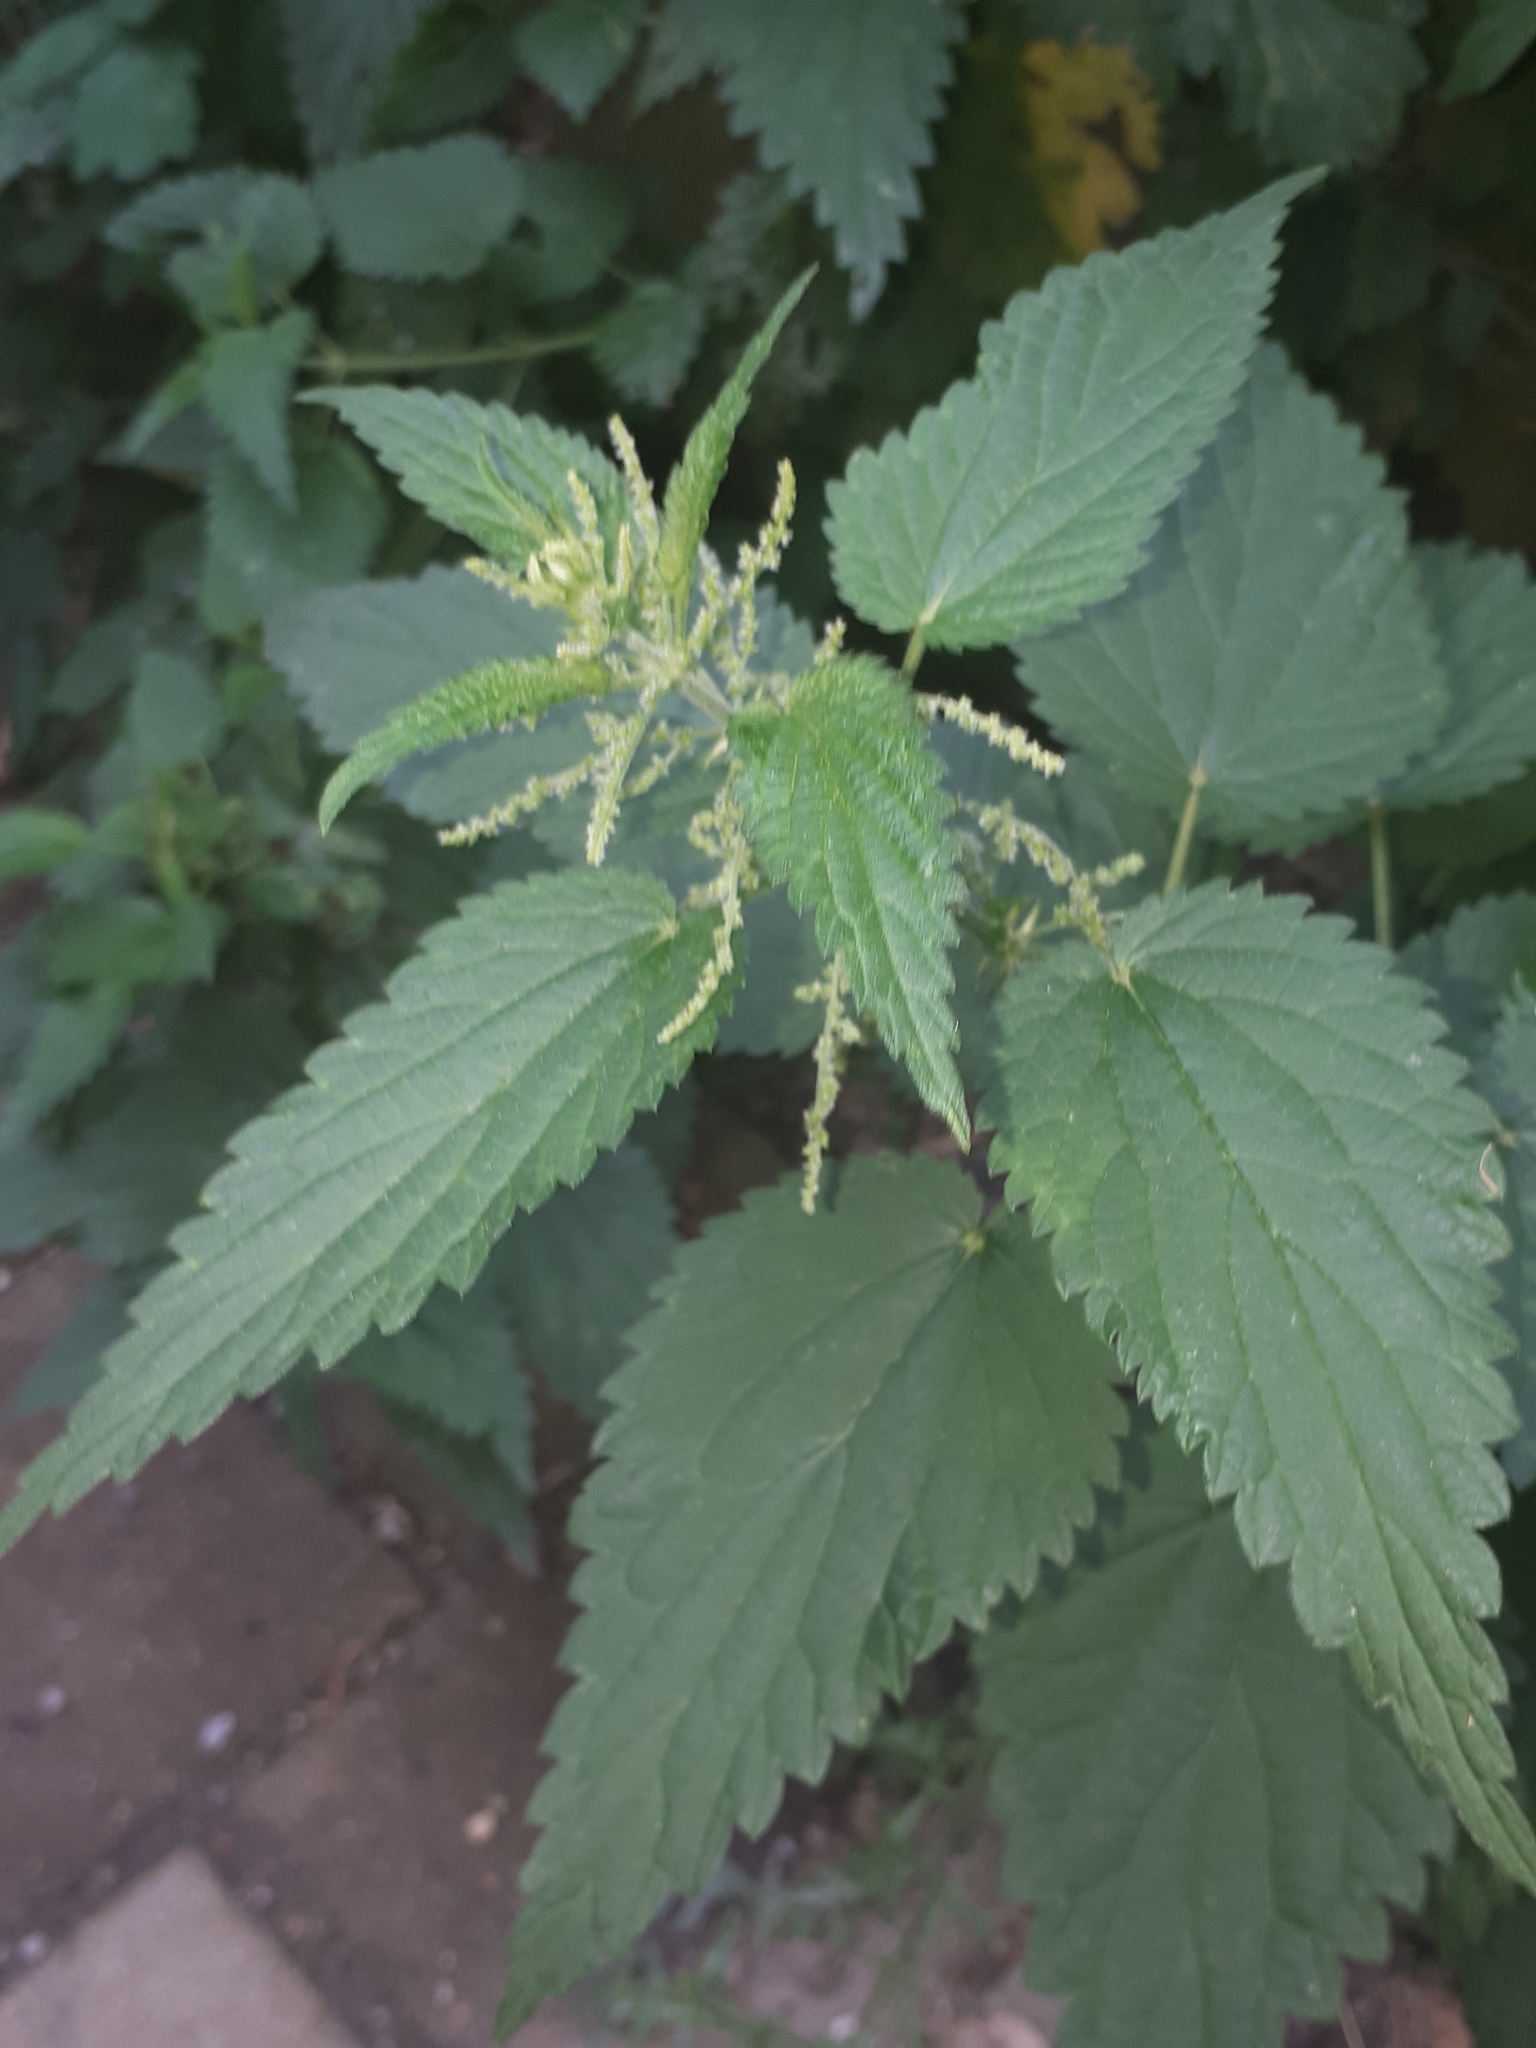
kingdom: Plantae
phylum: Tracheophyta
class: Magnoliopsida
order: Rosales
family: Urticaceae
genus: Urtica
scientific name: Urtica dioica
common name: Common nettle
